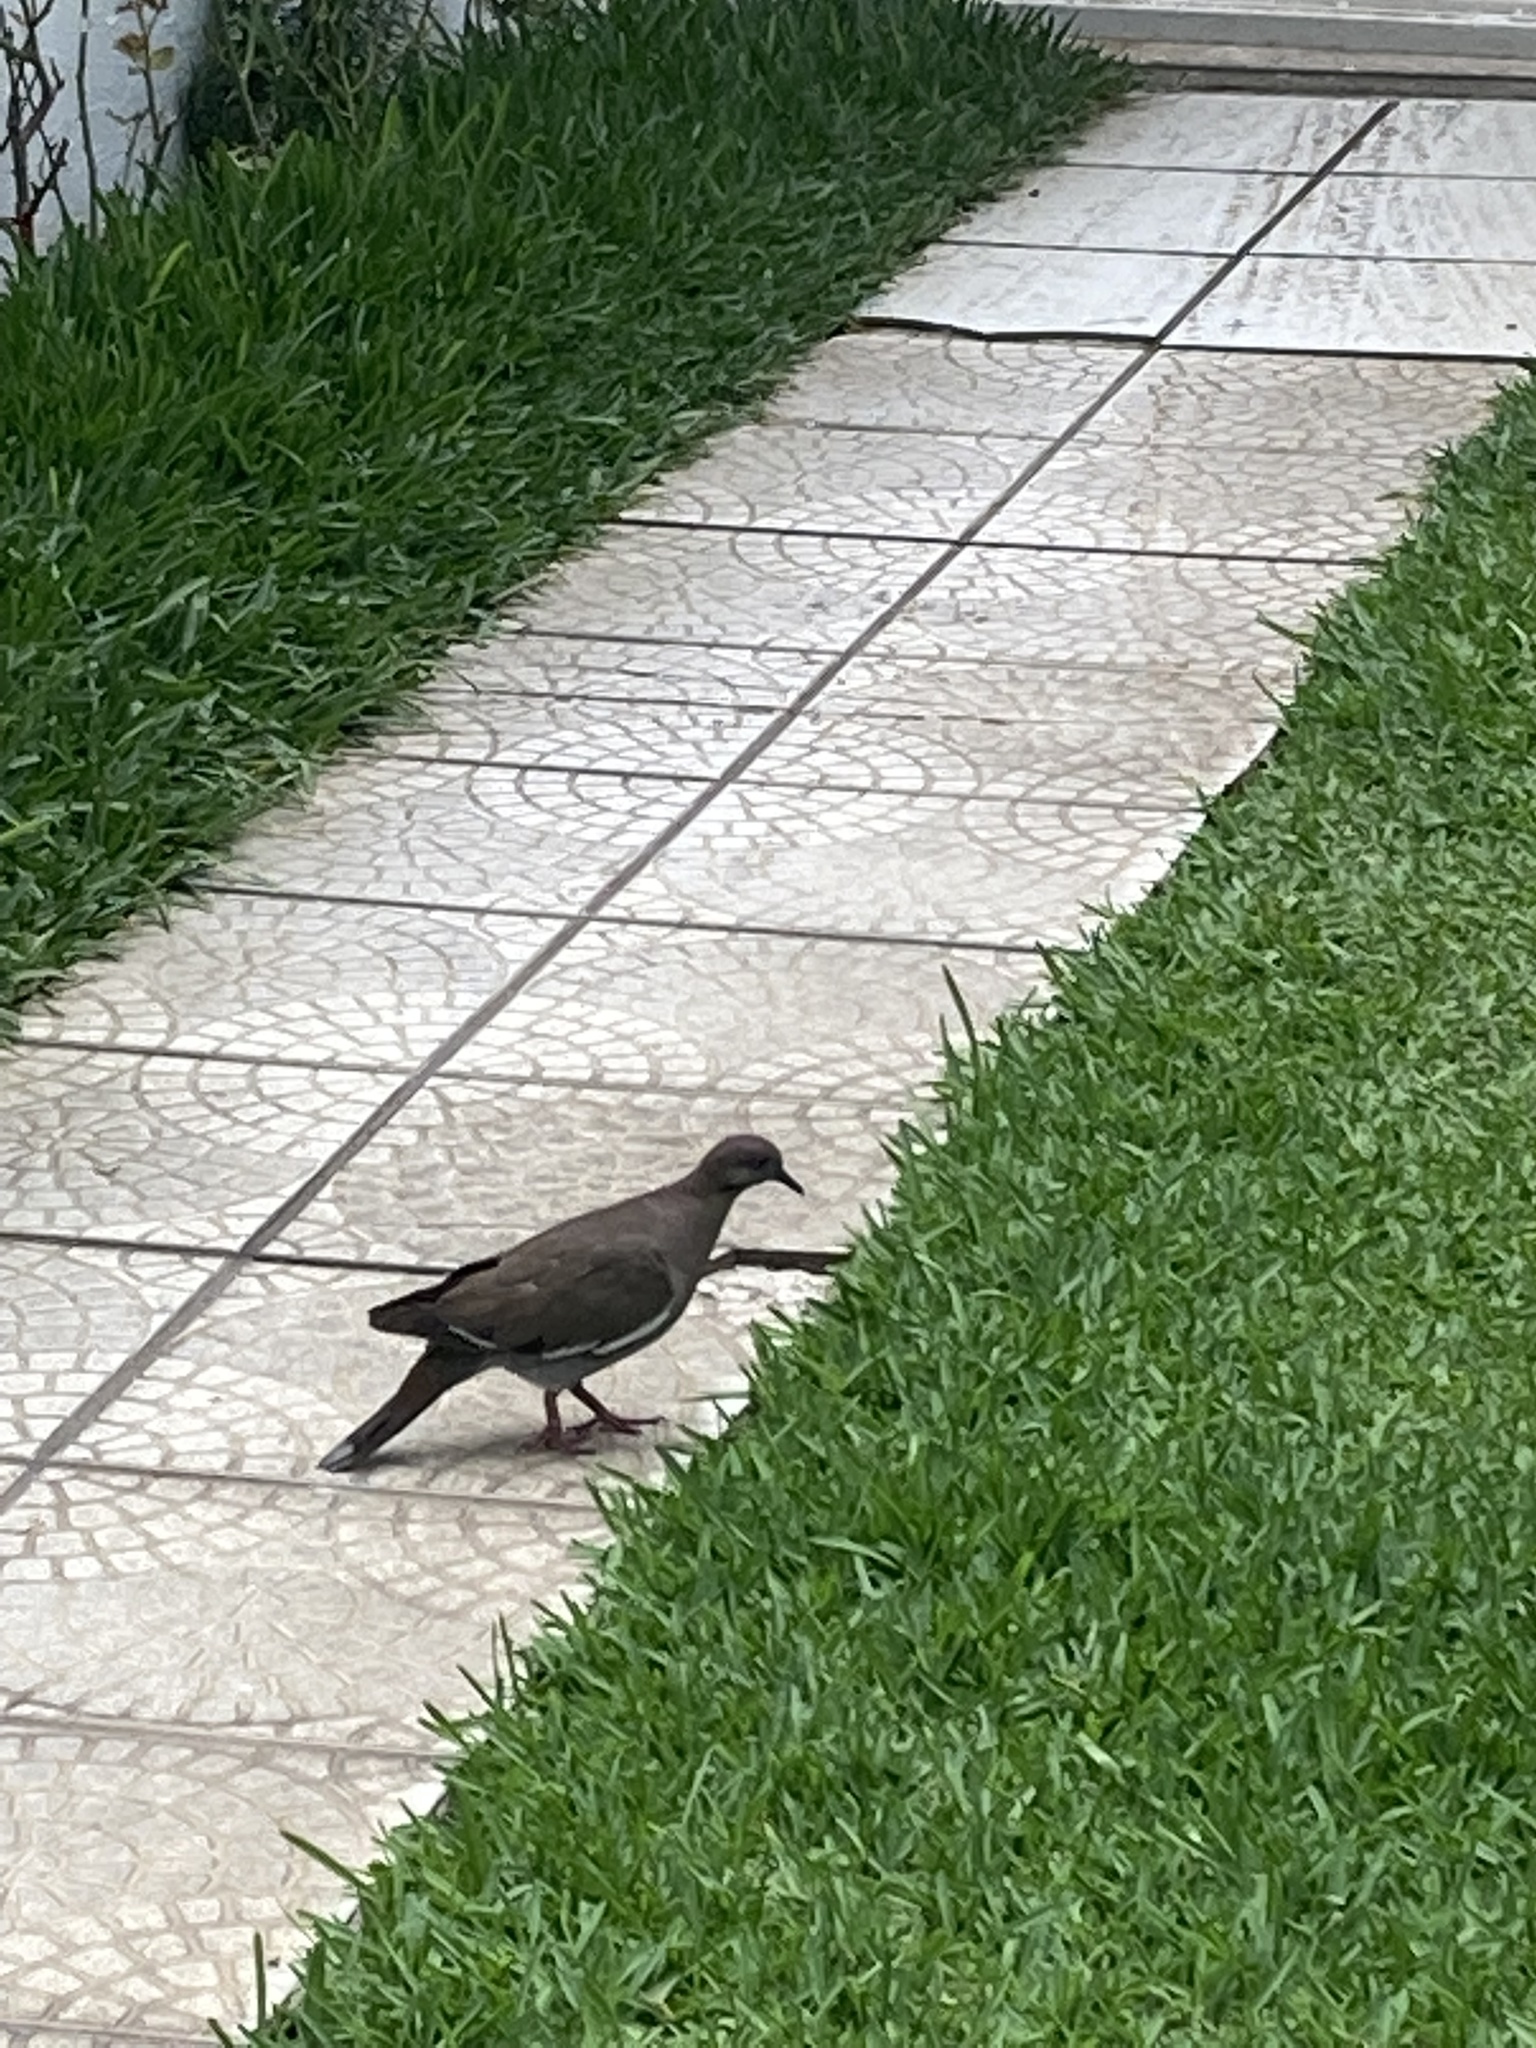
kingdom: Animalia
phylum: Chordata
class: Aves
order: Columbiformes
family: Columbidae
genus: Zenaida
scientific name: Zenaida asiatica
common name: White-winged dove
